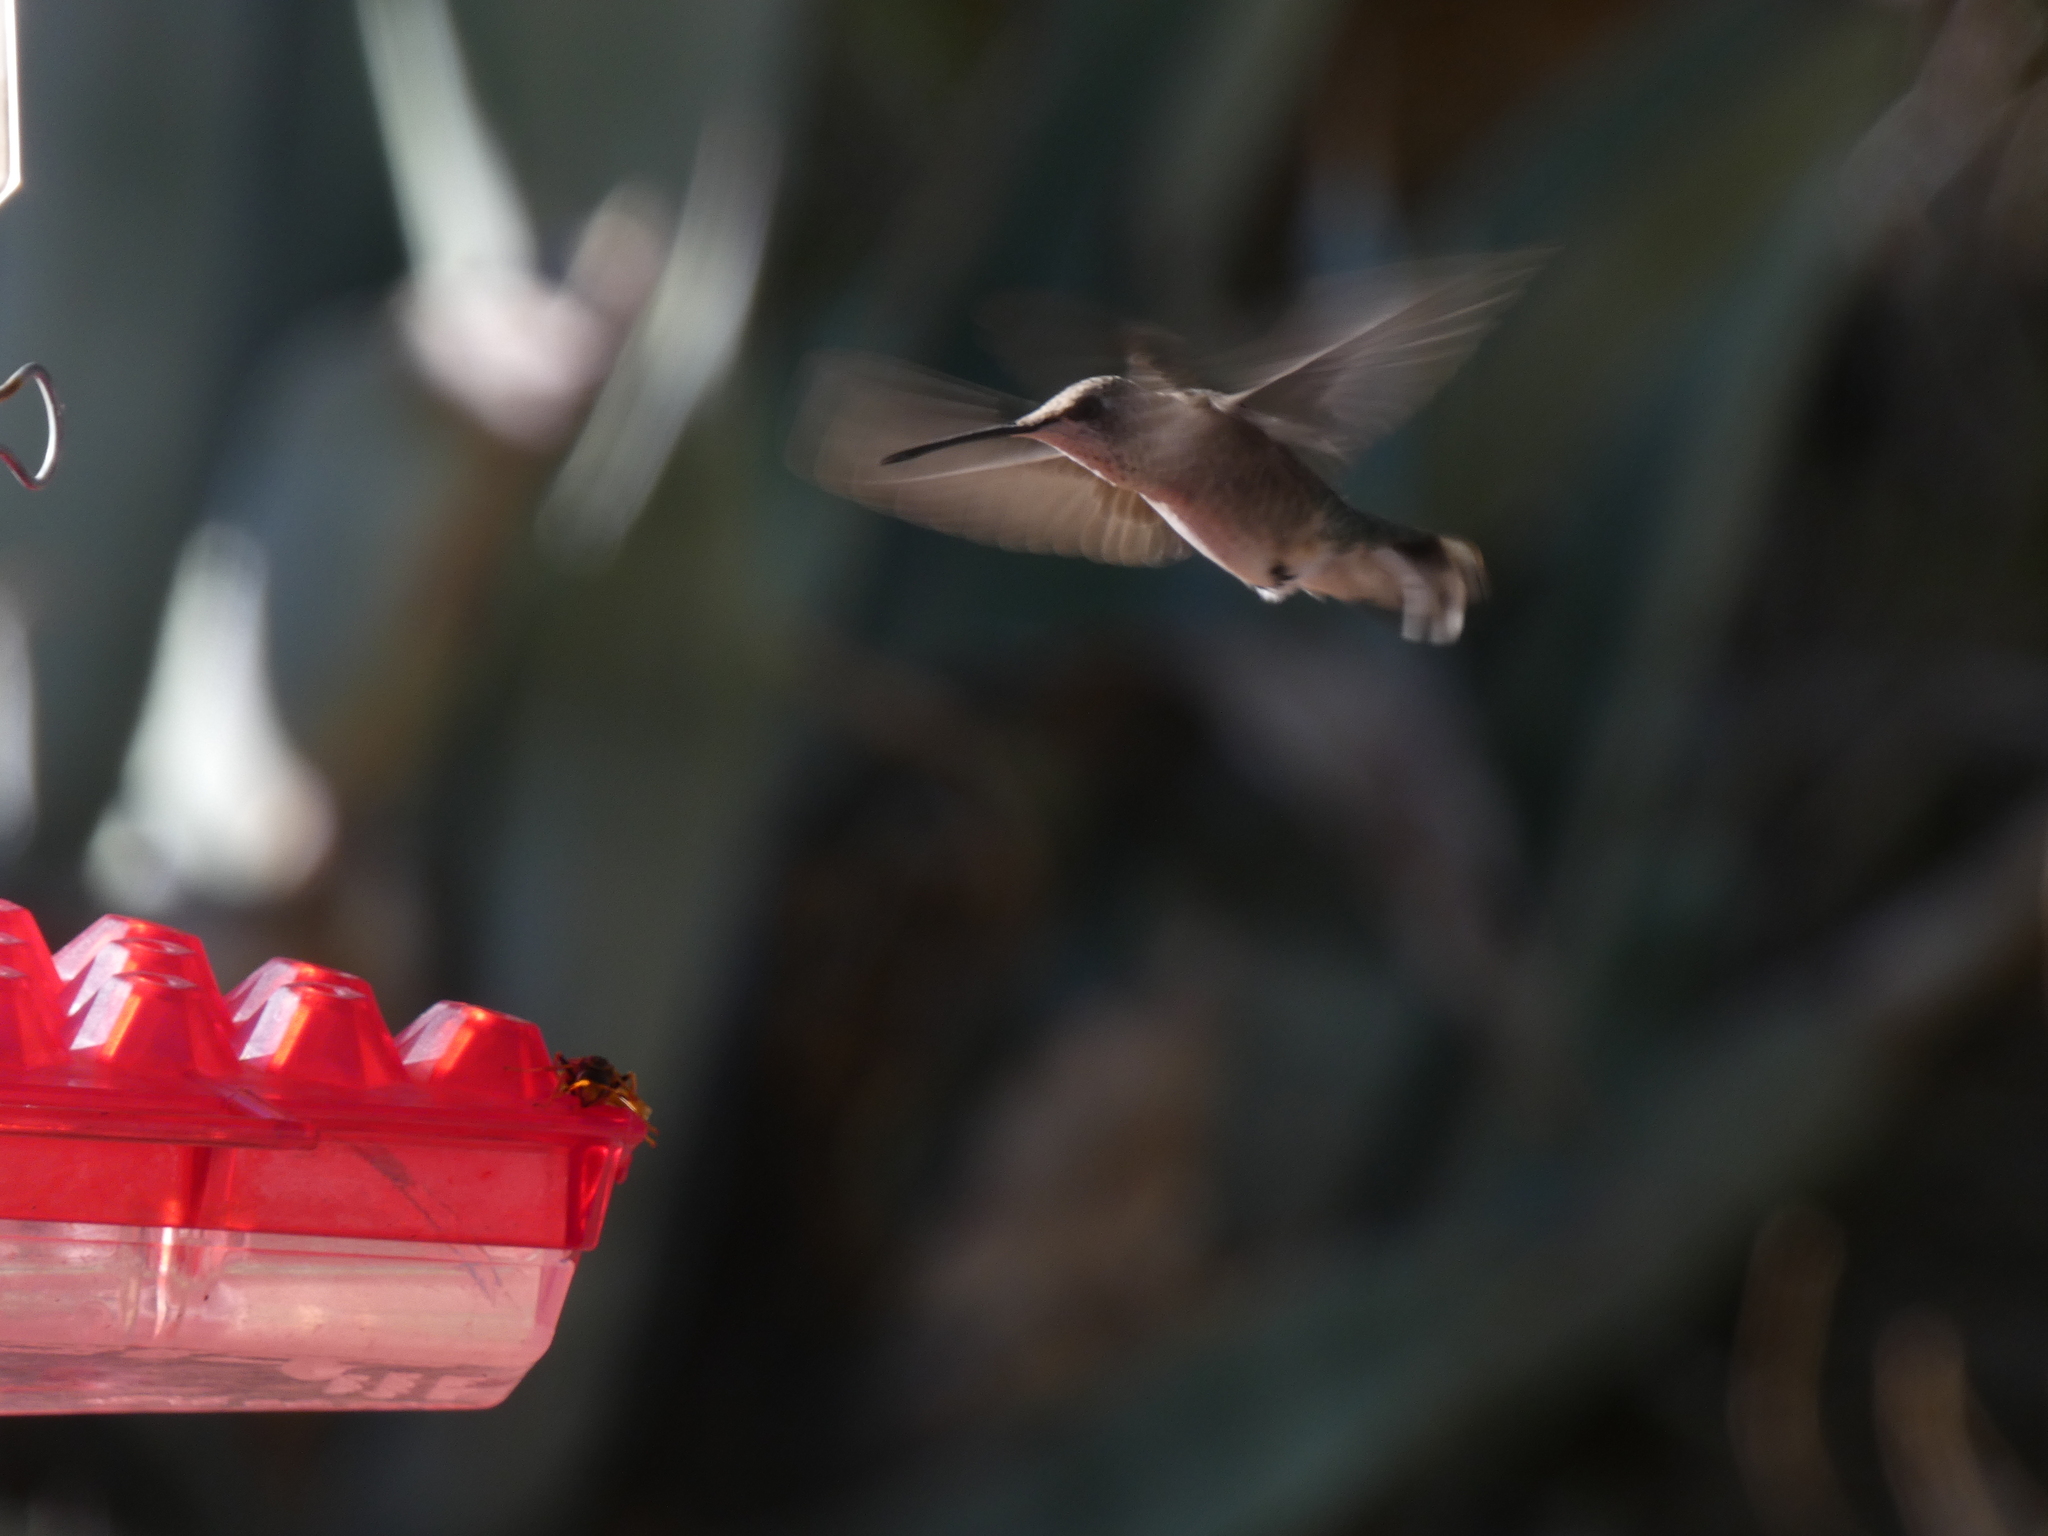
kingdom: Animalia
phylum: Chordata
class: Aves
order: Apodiformes
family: Trochilidae
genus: Archilochus
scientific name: Archilochus alexandri
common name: Black-chinned hummingbird
